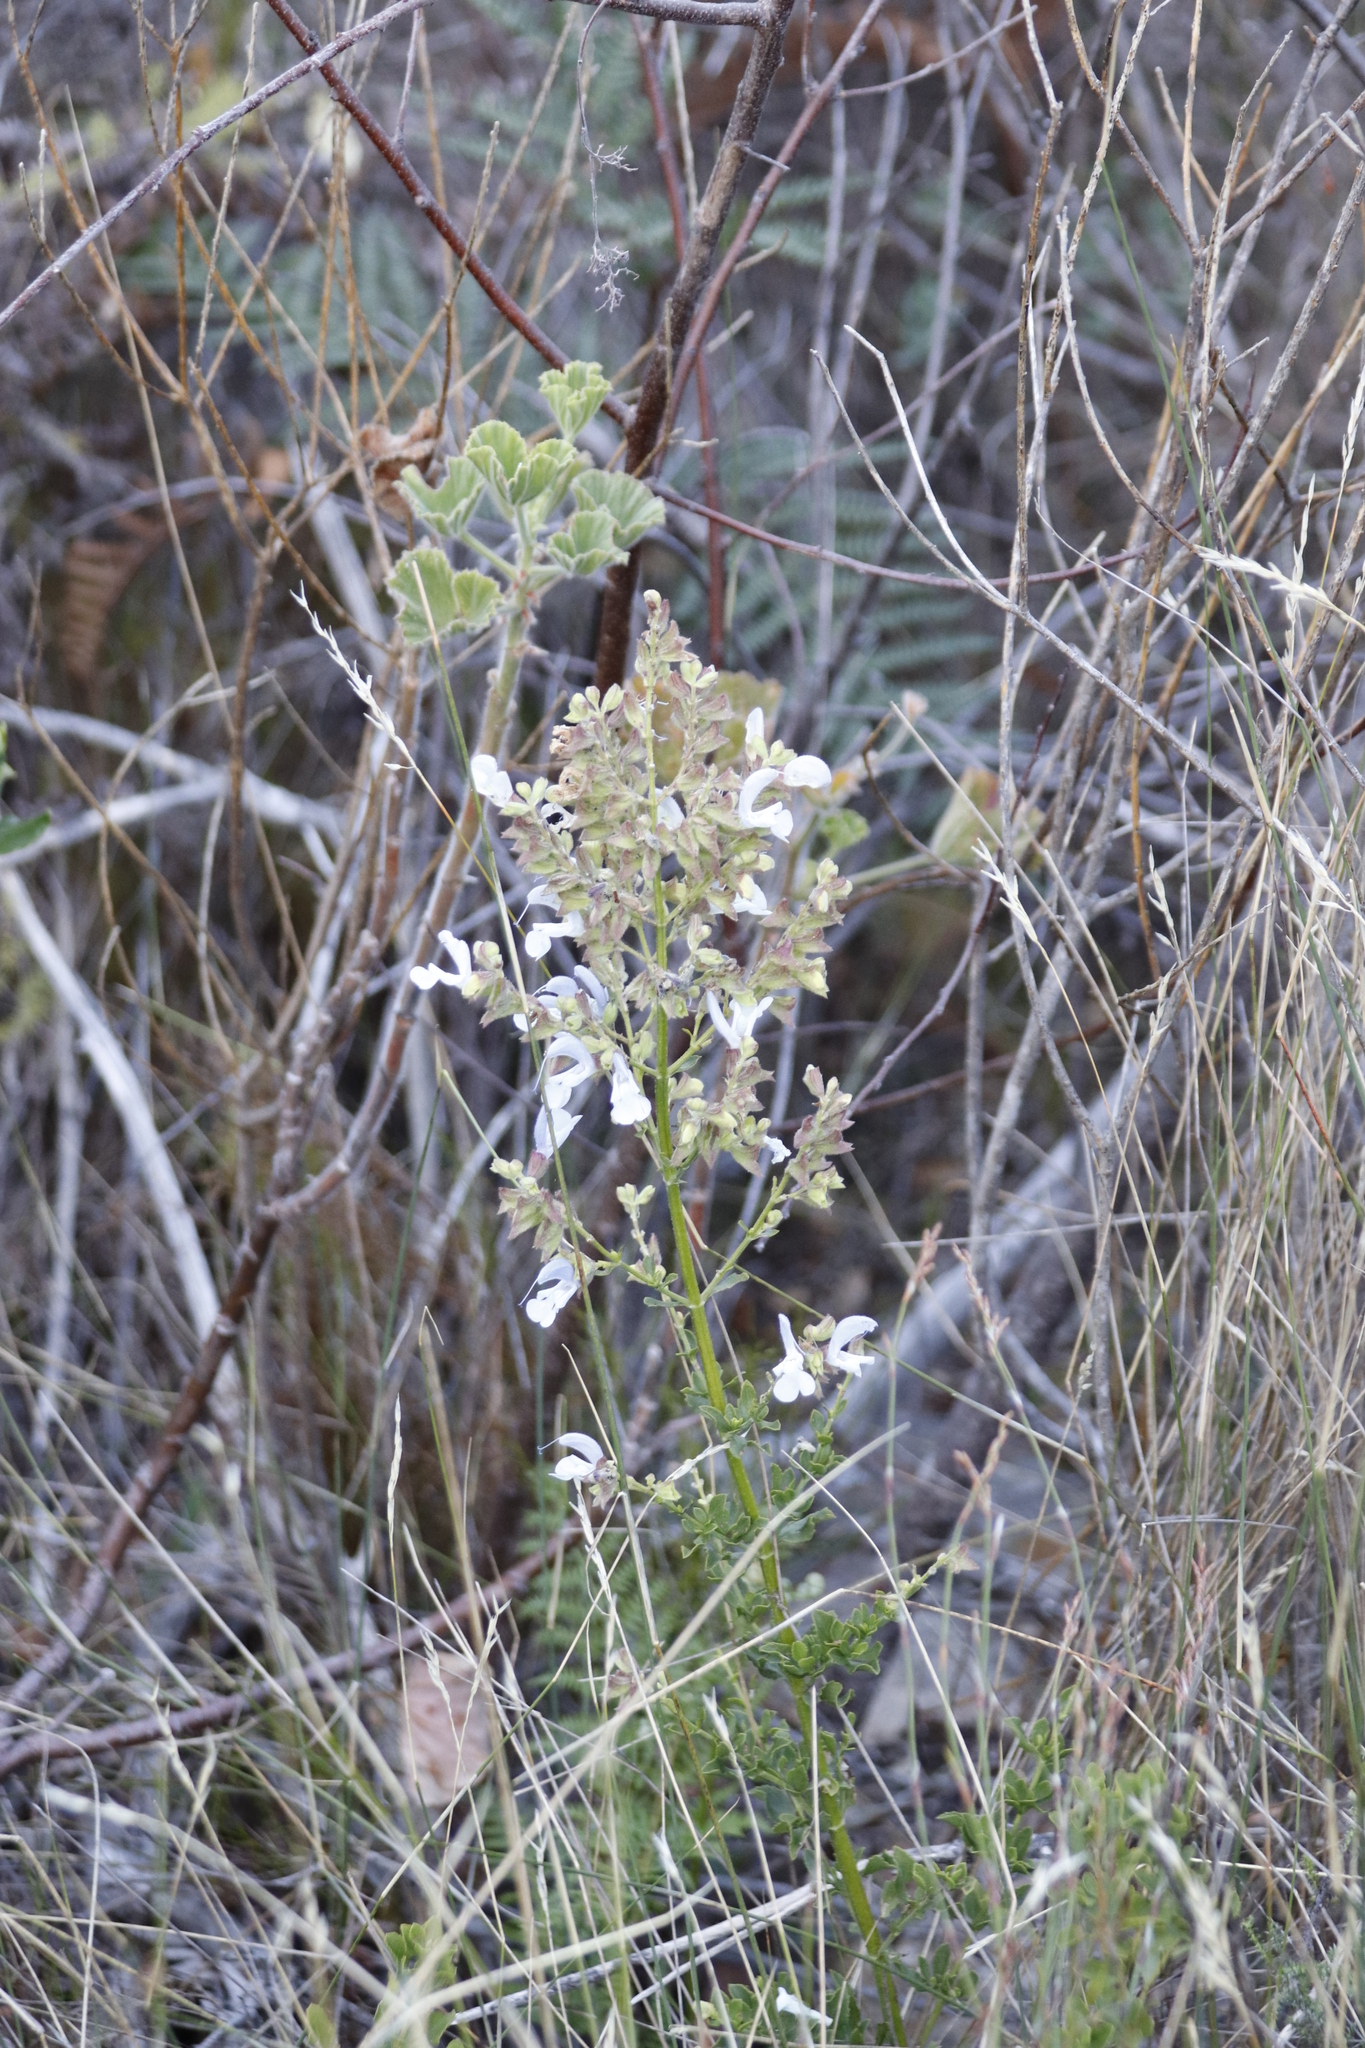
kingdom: Plantae
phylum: Tracheophyta
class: Magnoliopsida
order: Lamiales
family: Lamiaceae
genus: Salvia
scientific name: Salvia chamelaeagnea
